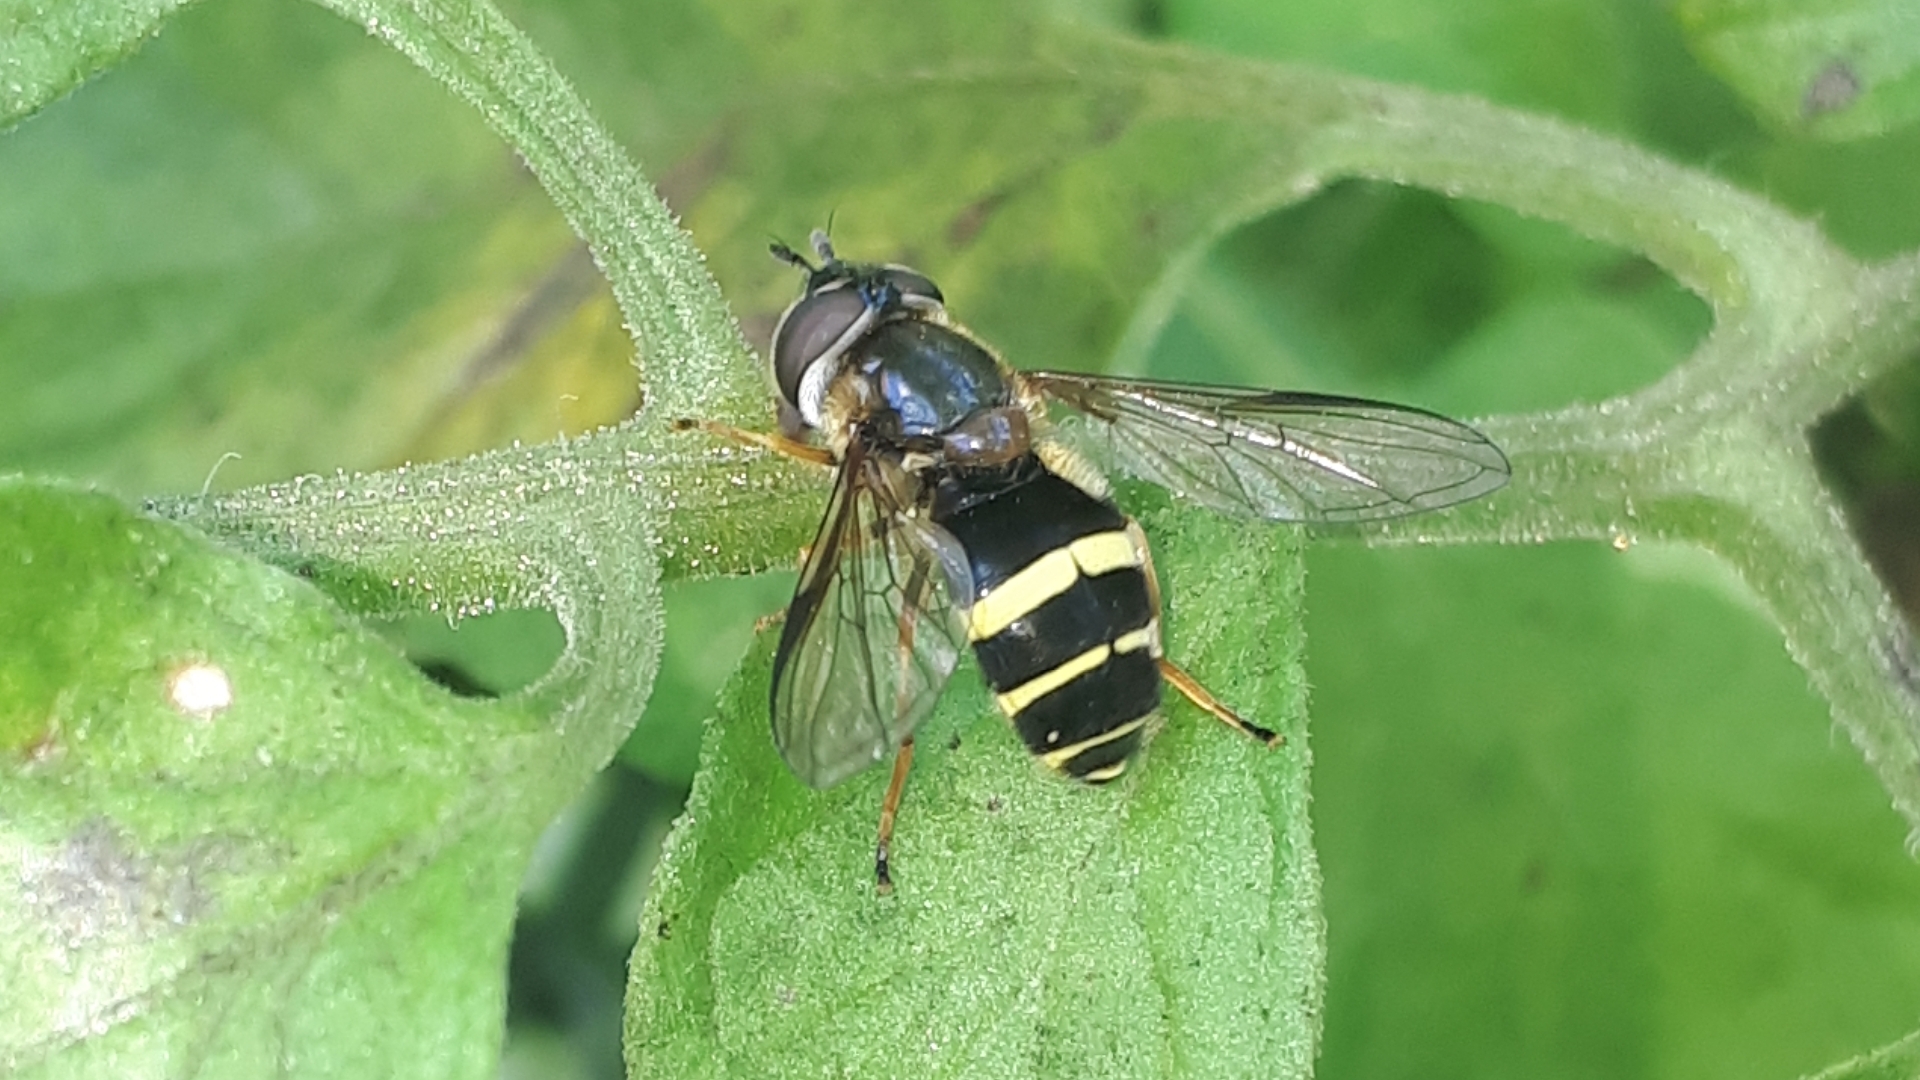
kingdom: Animalia
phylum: Arthropoda
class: Insecta
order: Diptera
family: Syrphidae
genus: Dasysyrphus
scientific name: Dasysyrphus tricinctus
